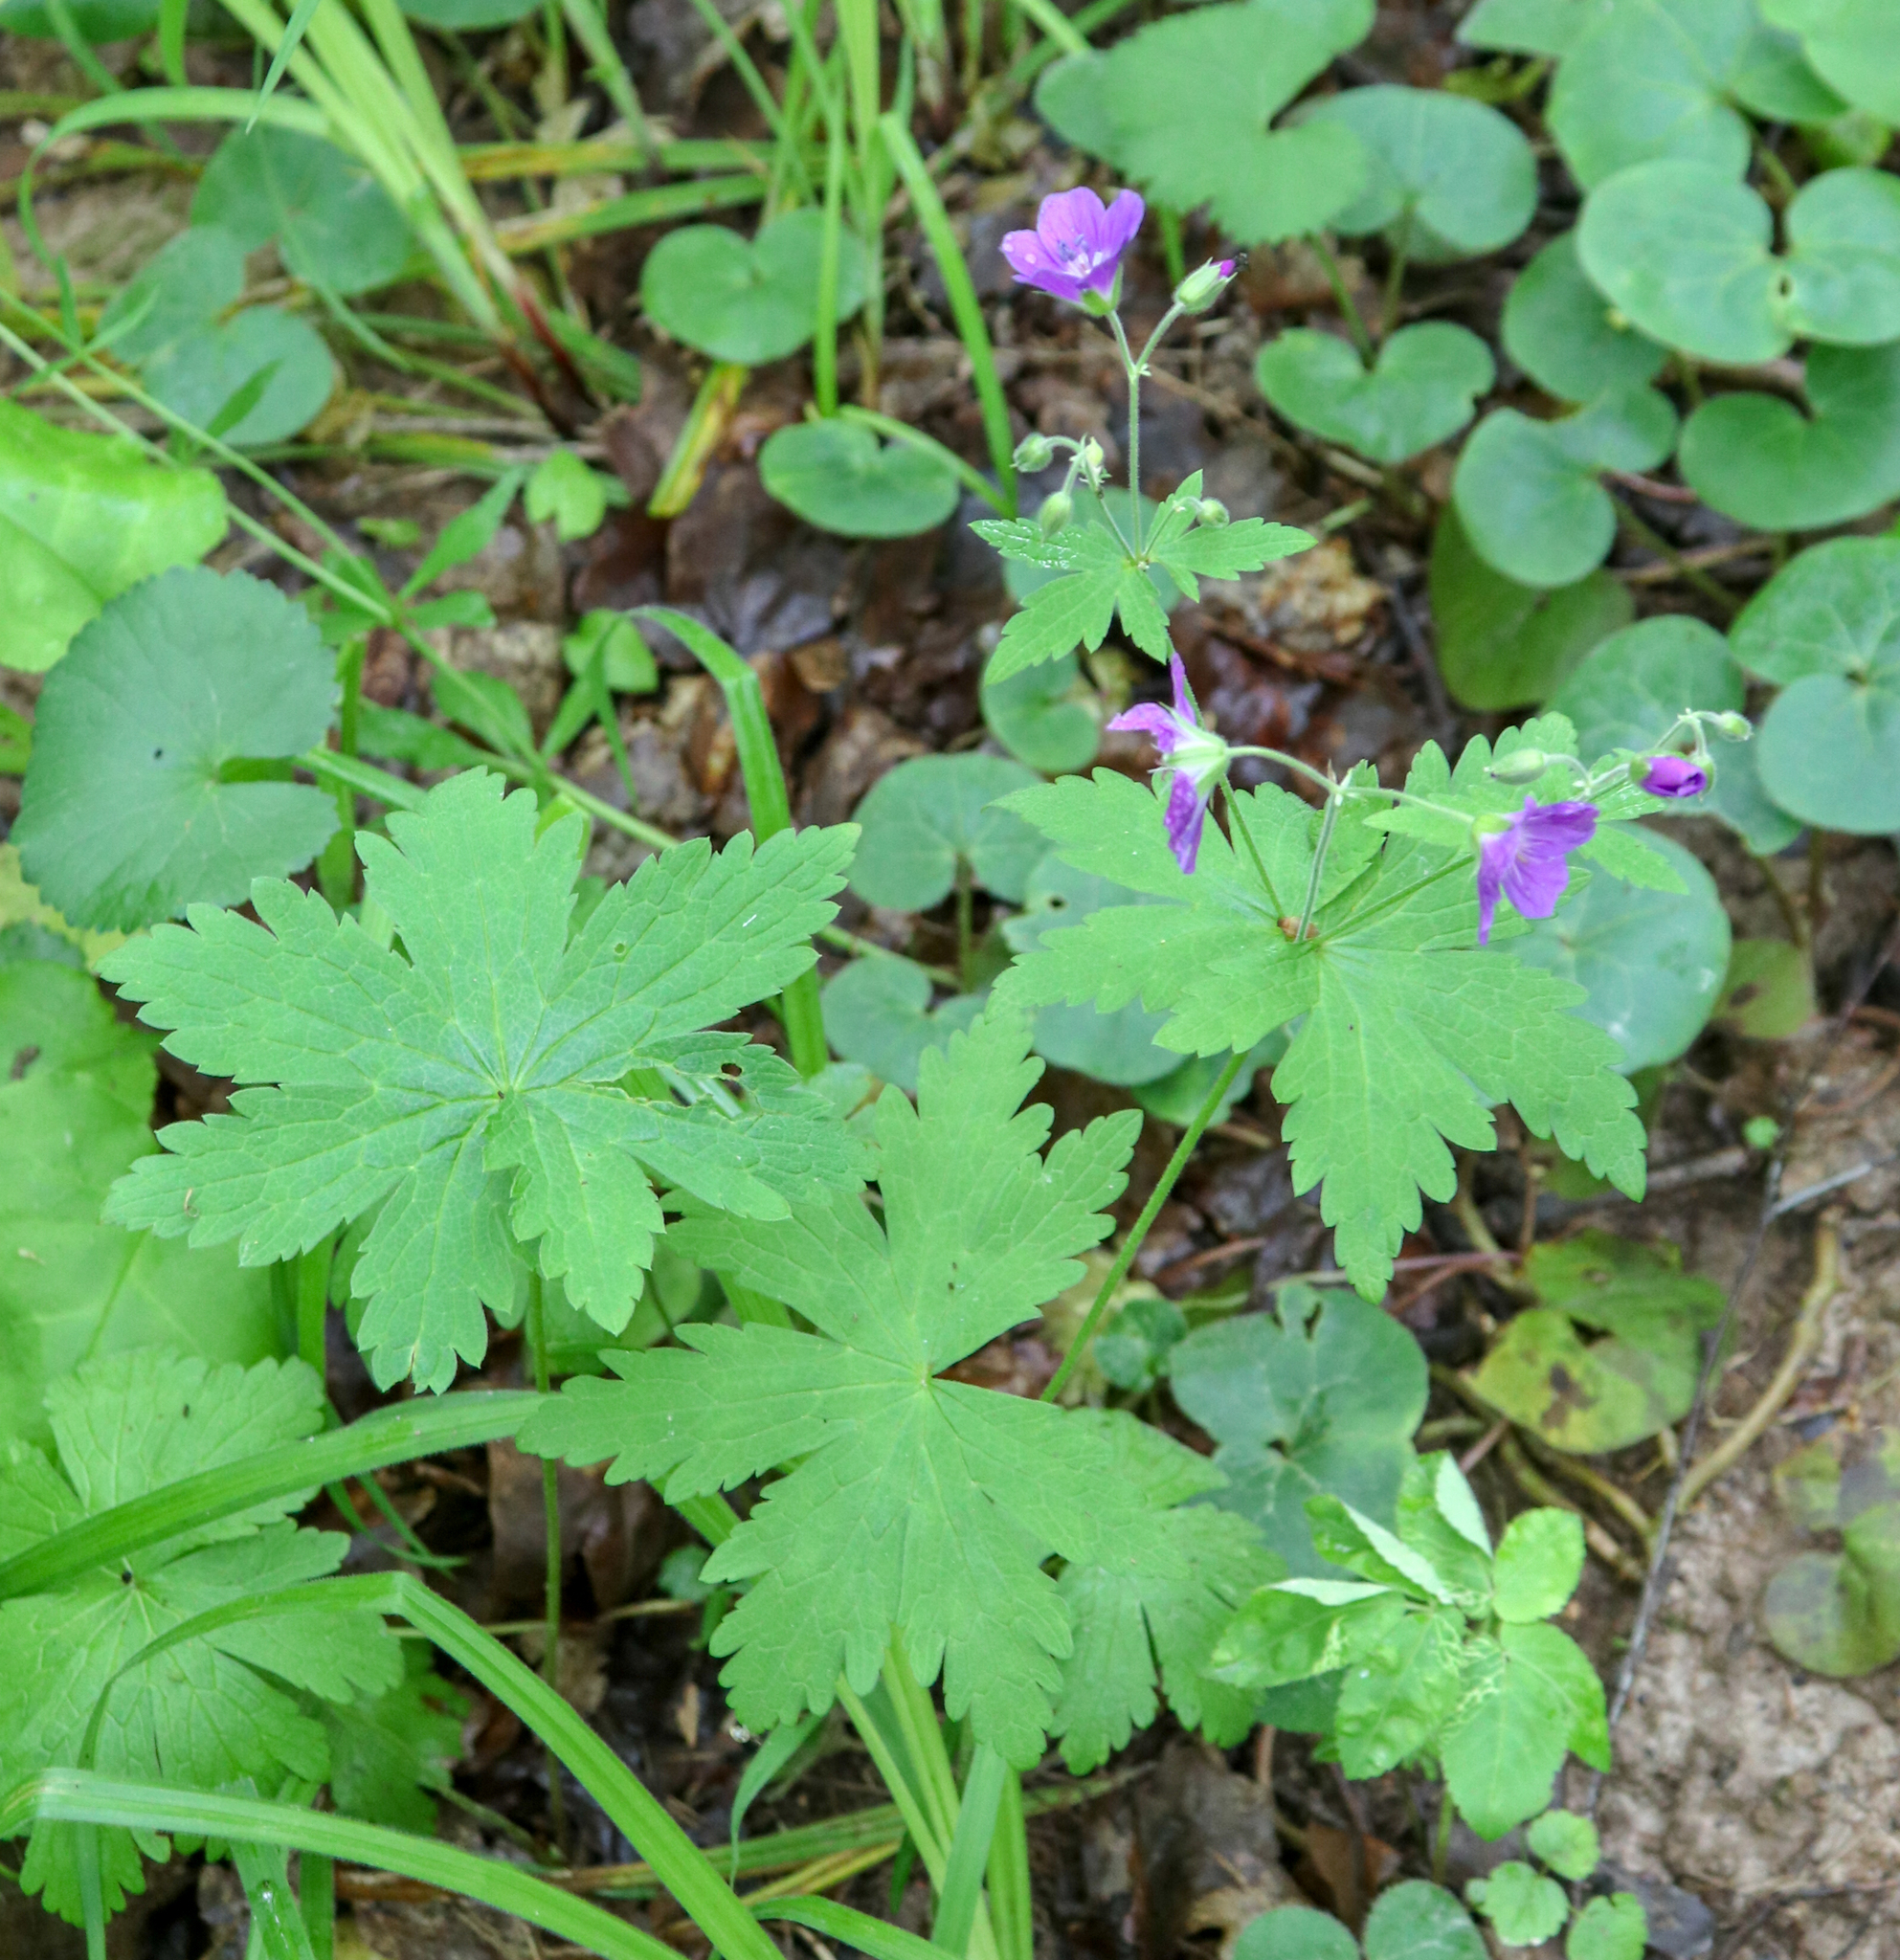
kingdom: Plantae
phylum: Tracheophyta
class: Magnoliopsida
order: Geraniales
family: Geraniaceae
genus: Geranium
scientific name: Geranium sylvaticum
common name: Wood crane's-bill
